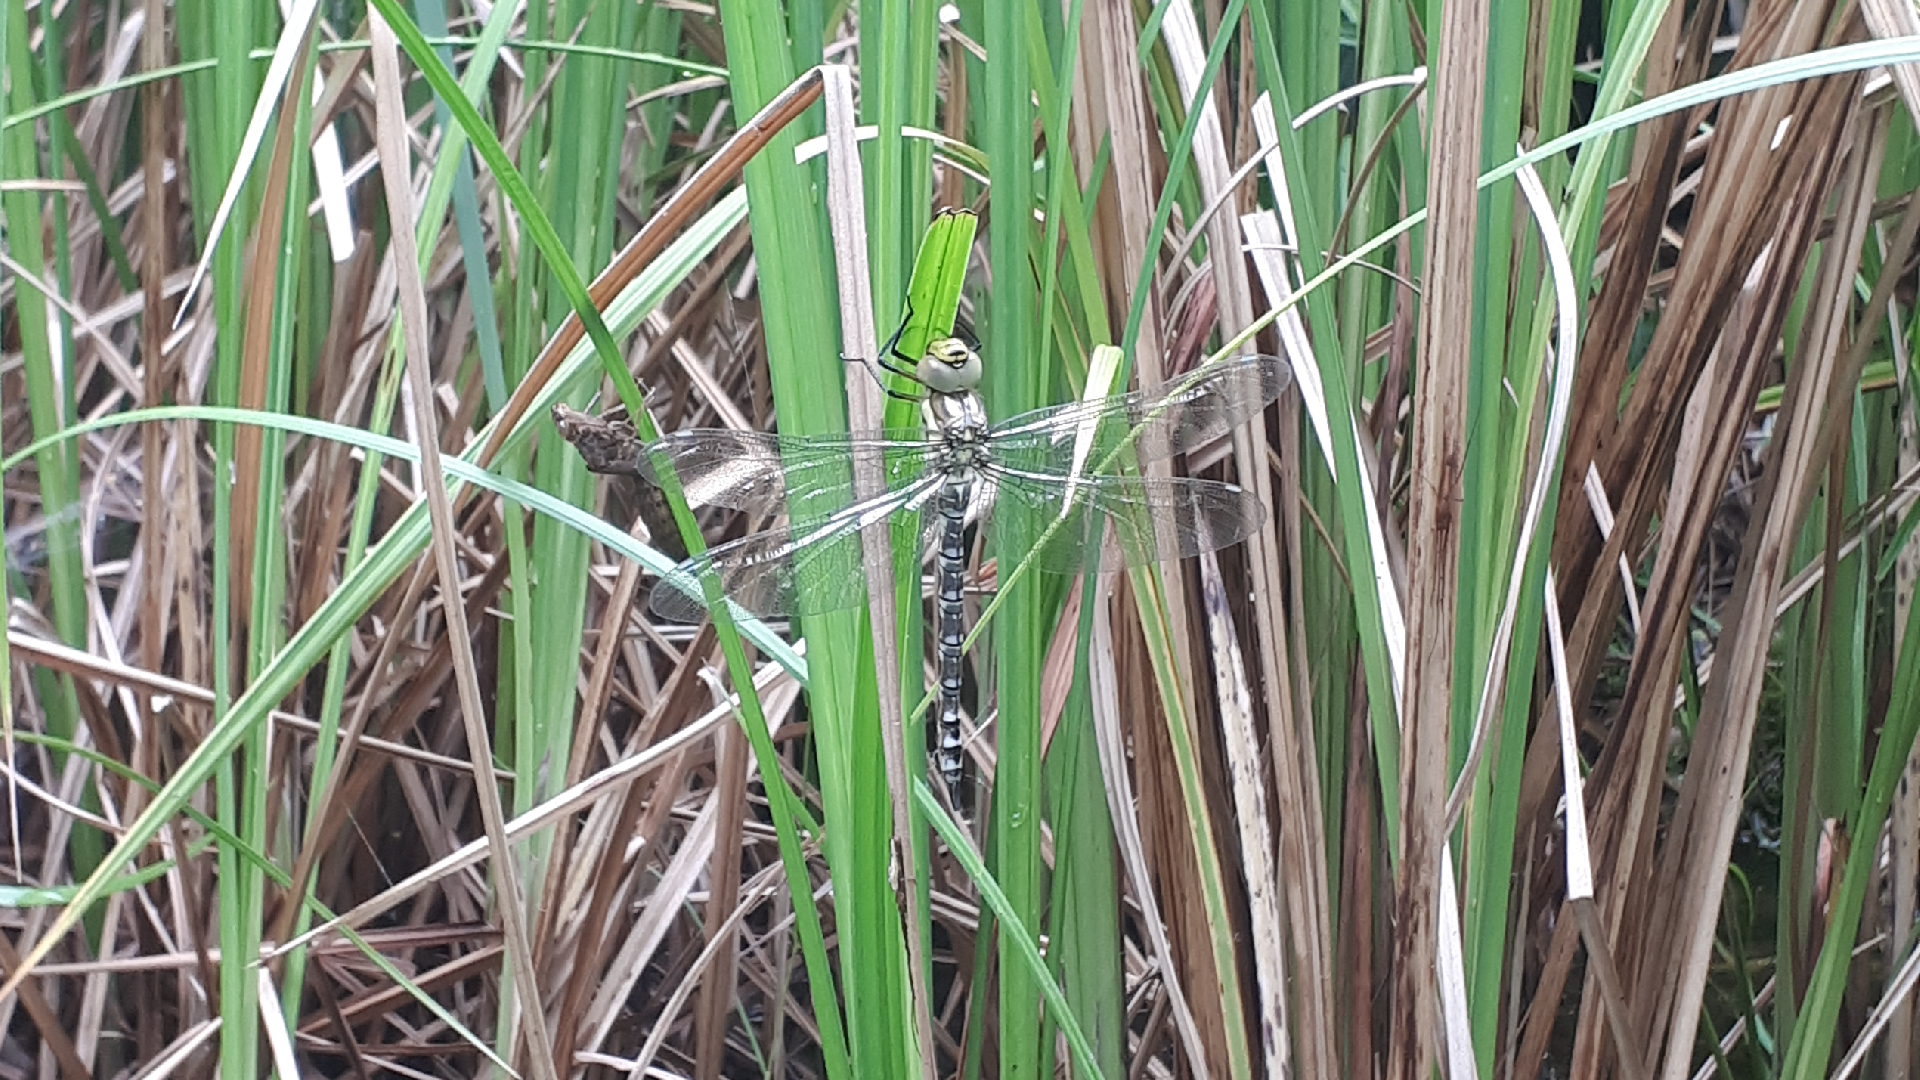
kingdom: Animalia
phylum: Arthropoda
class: Insecta
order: Odonata
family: Aeshnidae
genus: Aeshna
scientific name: Aeshna cyanea
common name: Southern hawker
